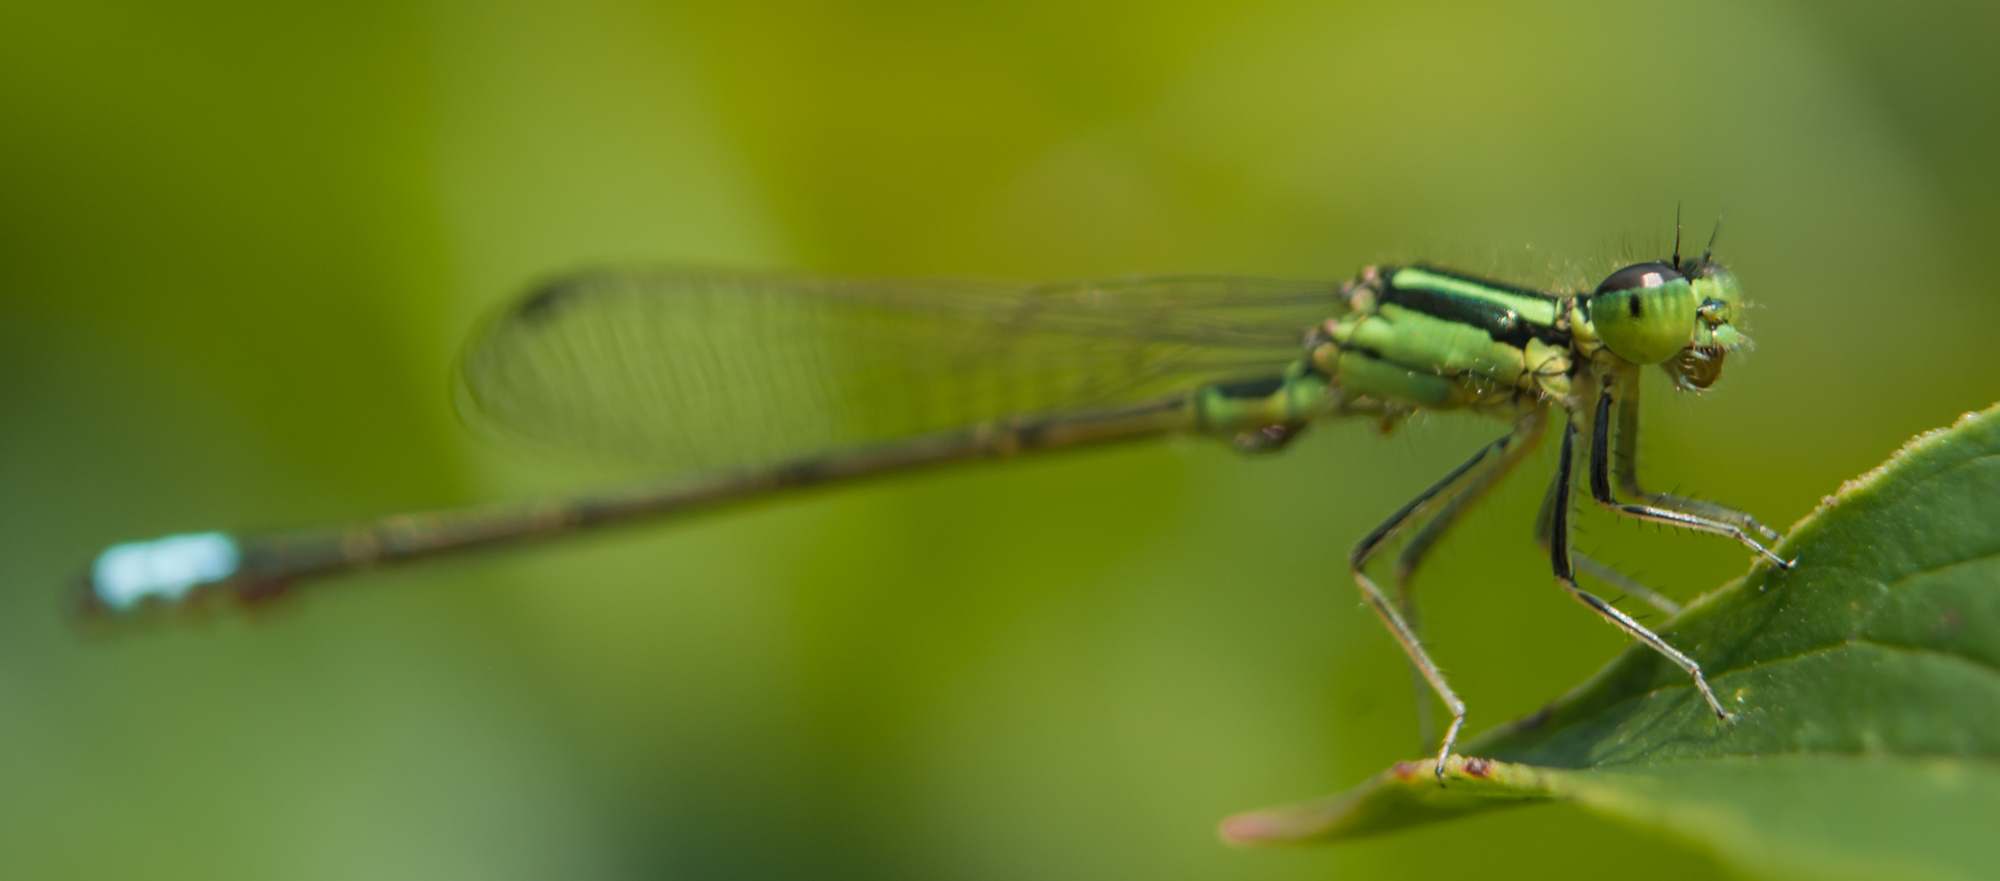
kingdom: Animalia
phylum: Arthropoda
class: Insecta
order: Odonata
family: Coenagrionidae
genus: Ischnura
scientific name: Ischnura verticalis
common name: Eastern forktail
